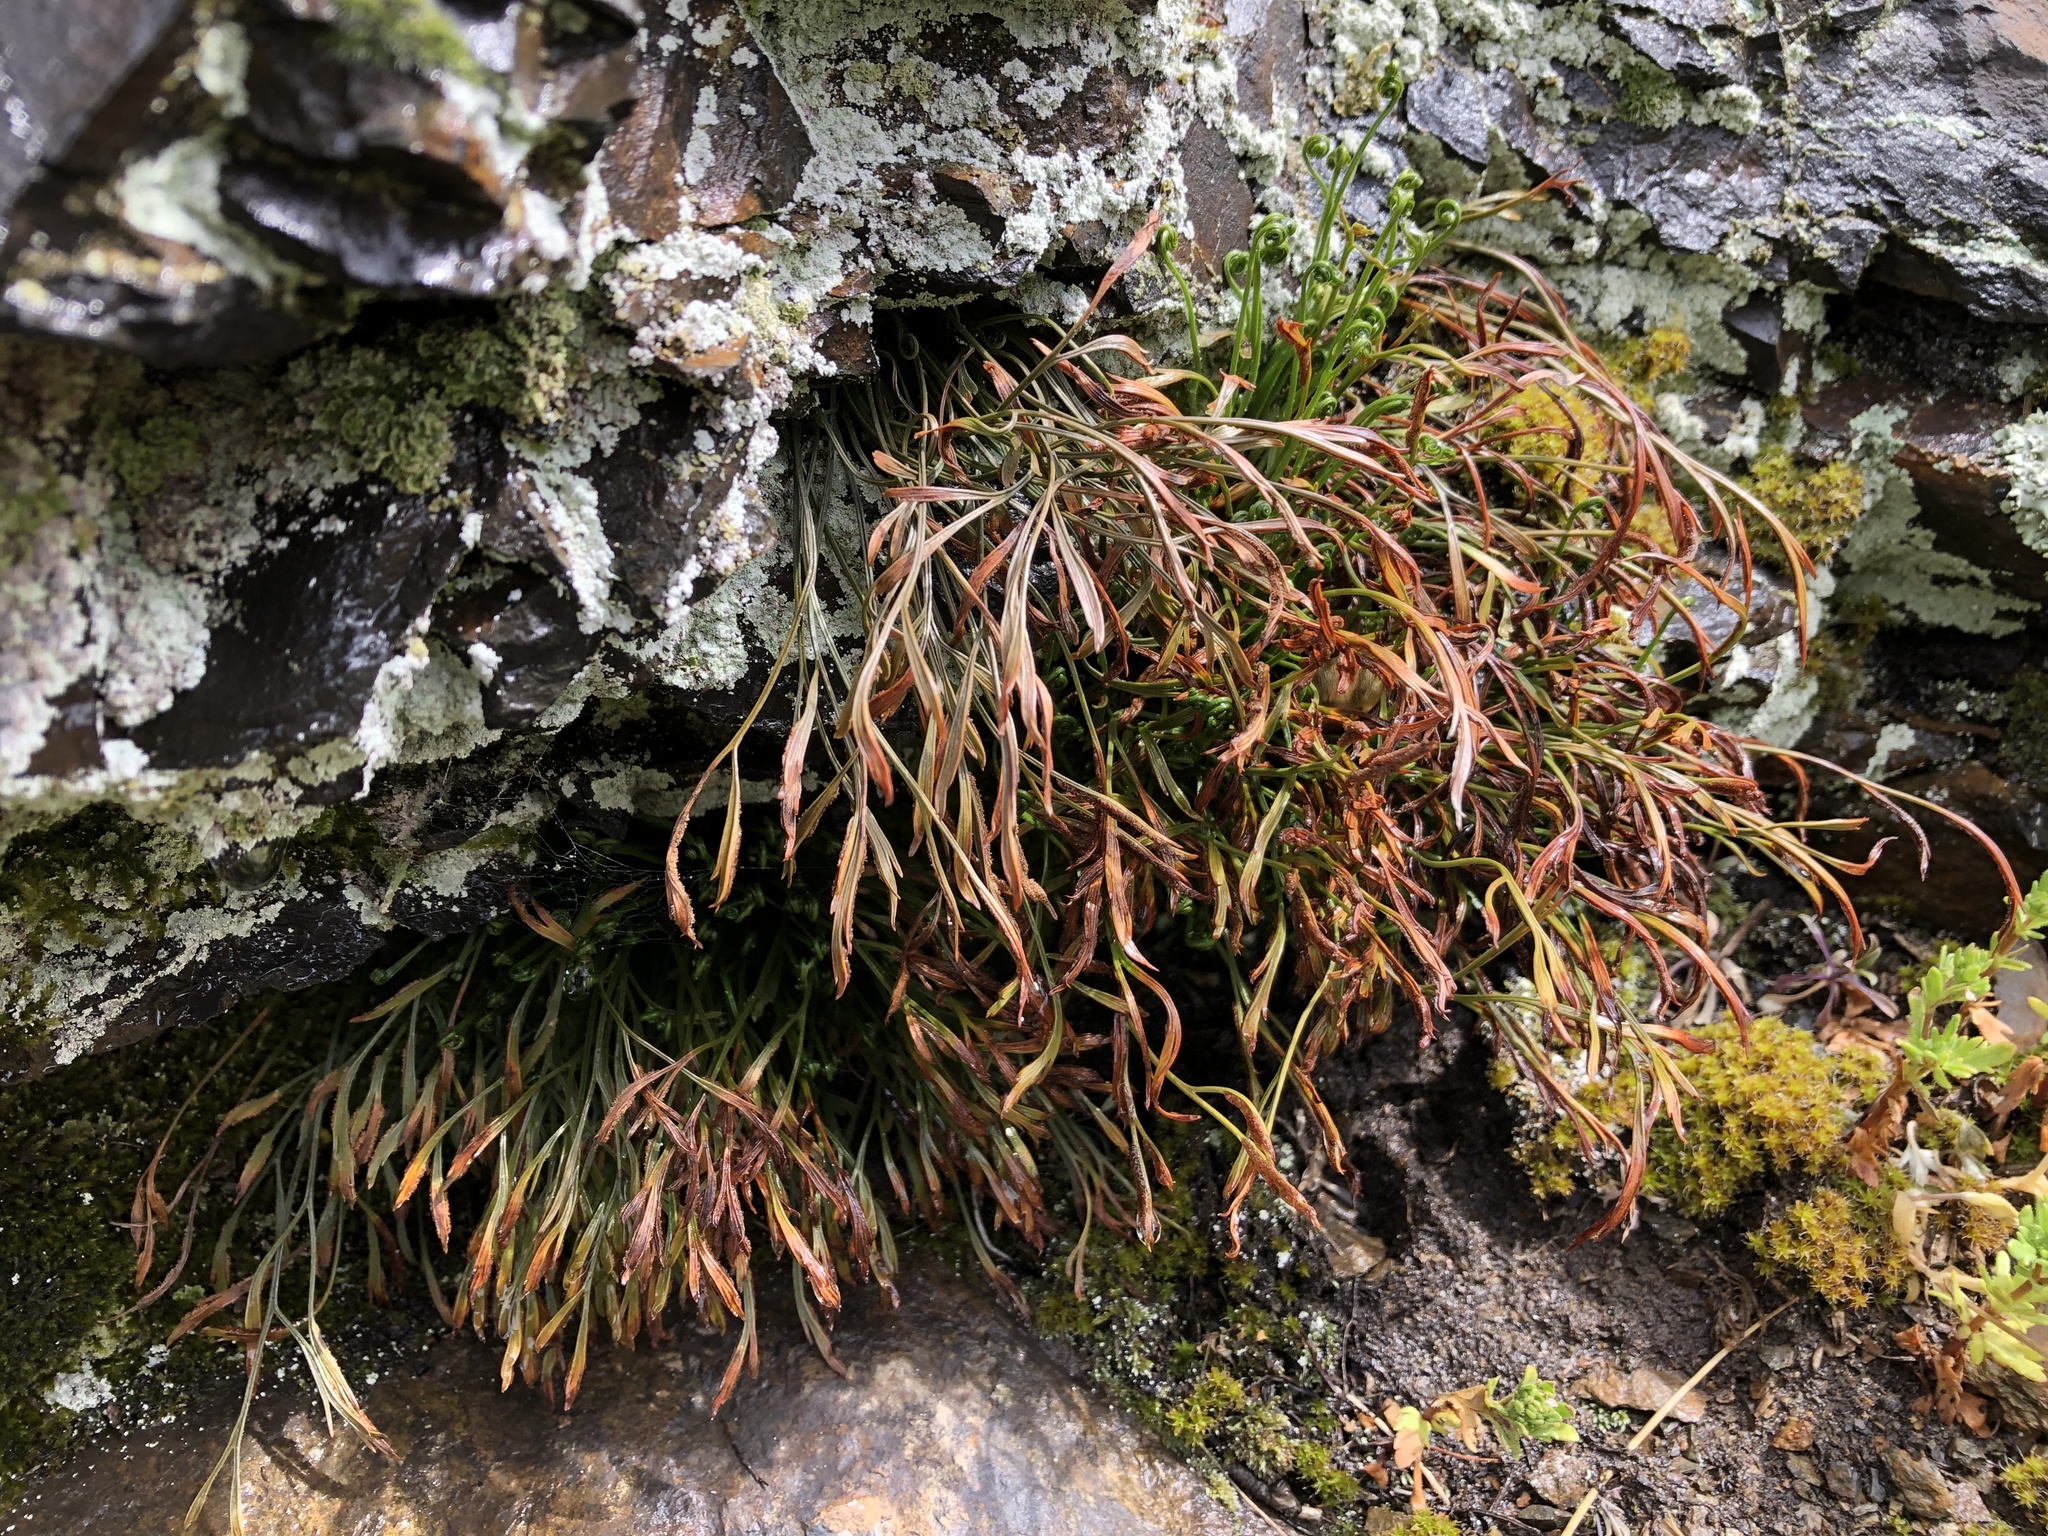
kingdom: Plantae
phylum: Tracheophyta
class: Polypodiopsida
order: Polypodiales
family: Aspleniaceae
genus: Asplenium
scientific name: Asplenium septentrionale
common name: Forked spleenwort
